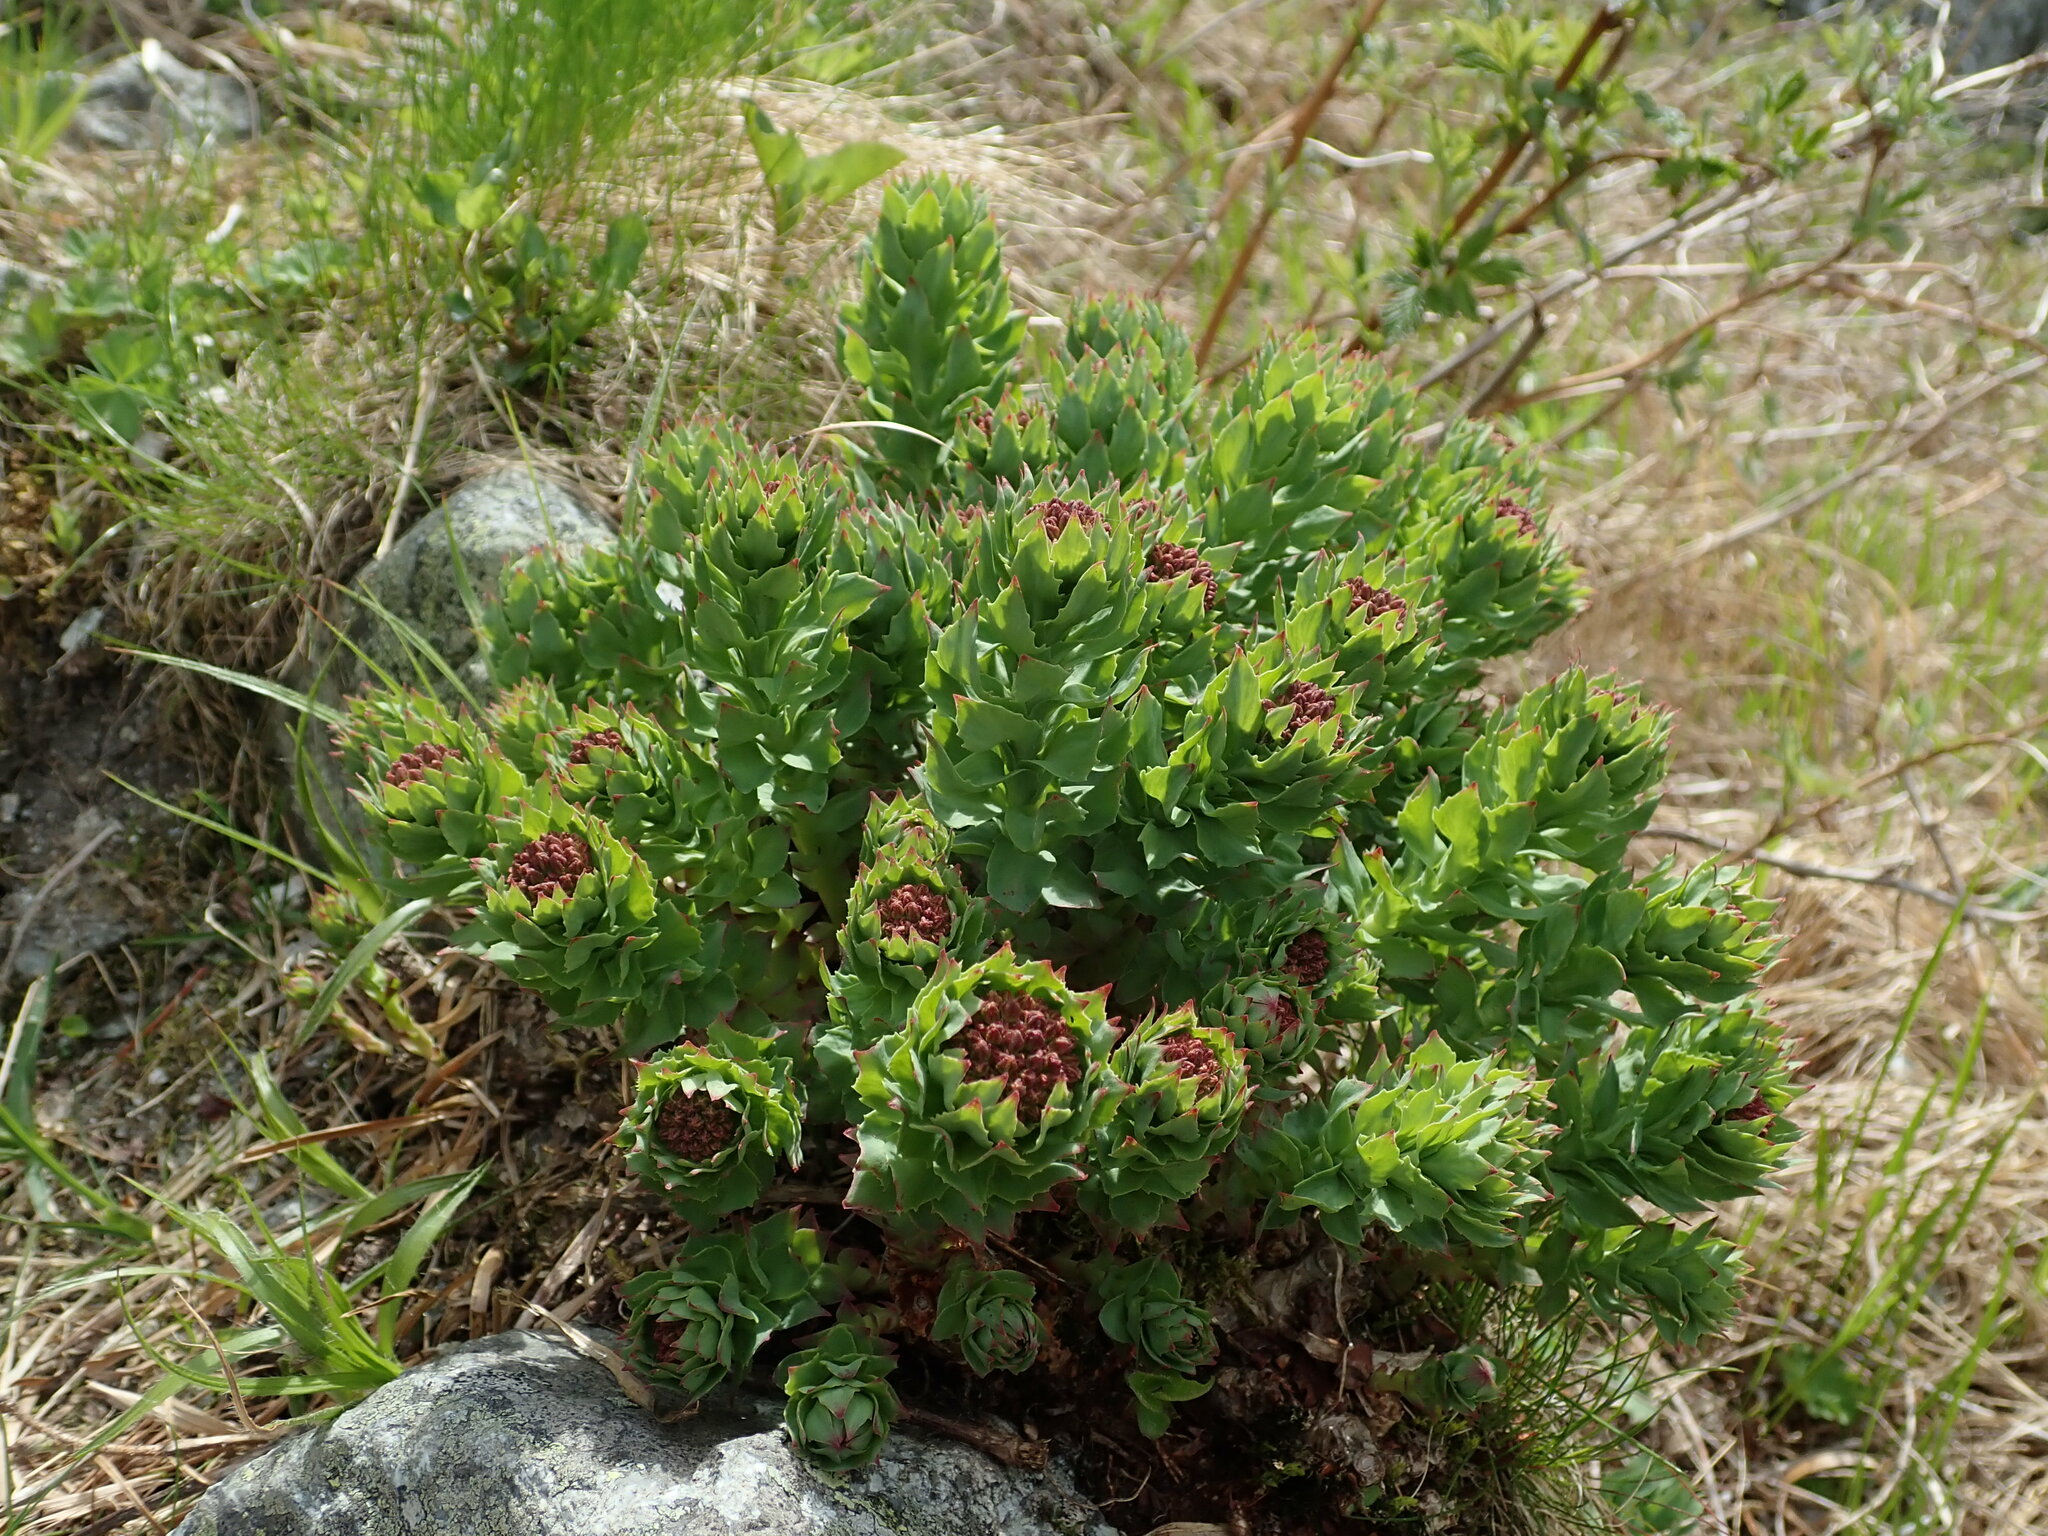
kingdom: Plantae
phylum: Tracheophyta
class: Magnoliopsida
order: Saxifragales
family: Crassulaceae
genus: Rhodiola
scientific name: Rhodiola rosea
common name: Roseroot
